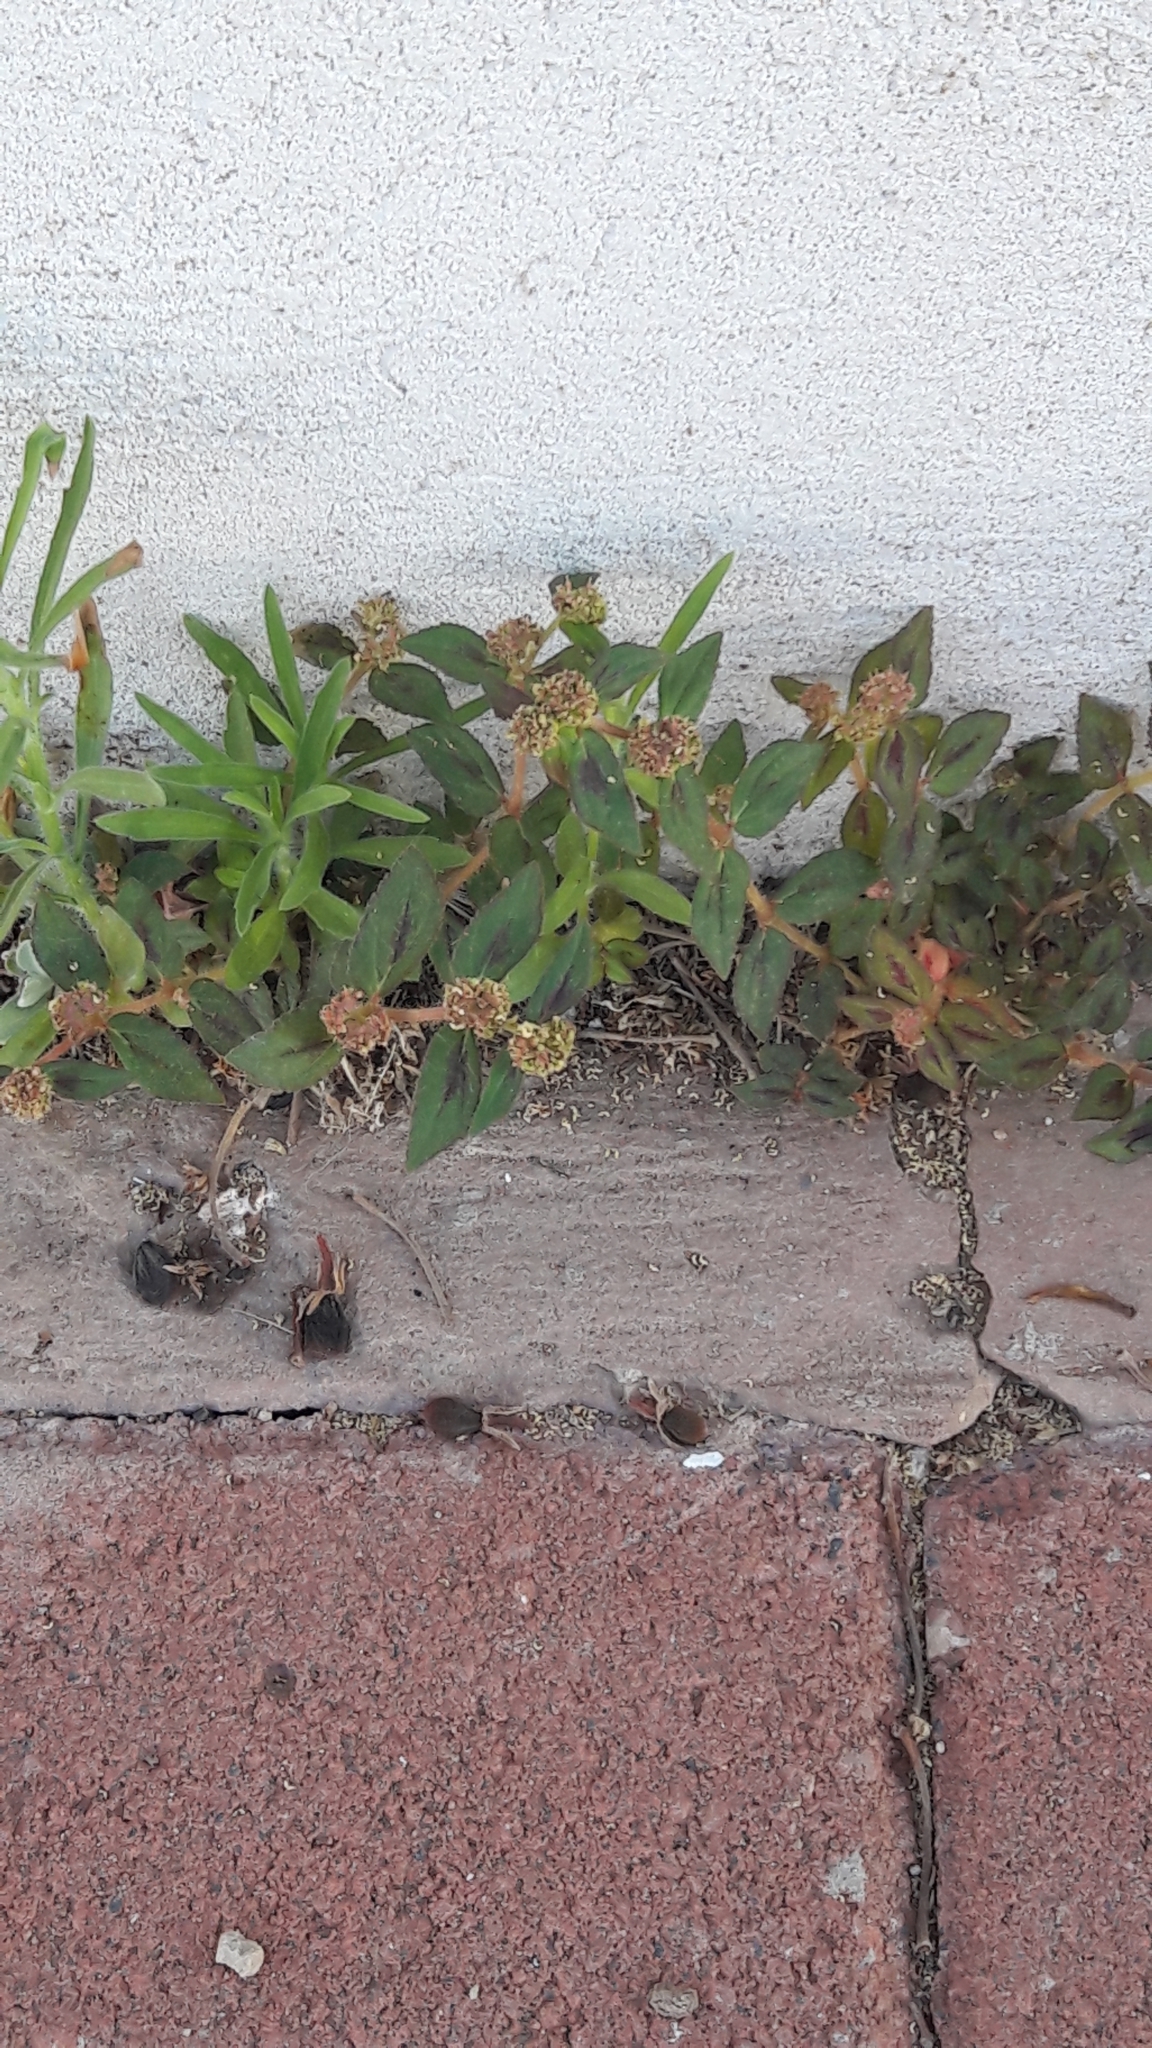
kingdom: Plantae
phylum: Tracheophyta
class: Magnoliopsida
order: Malpighiales
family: Euphorbiaceae
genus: Euphorbia
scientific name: Euphorbia hirta
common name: Pillpod sandmat
